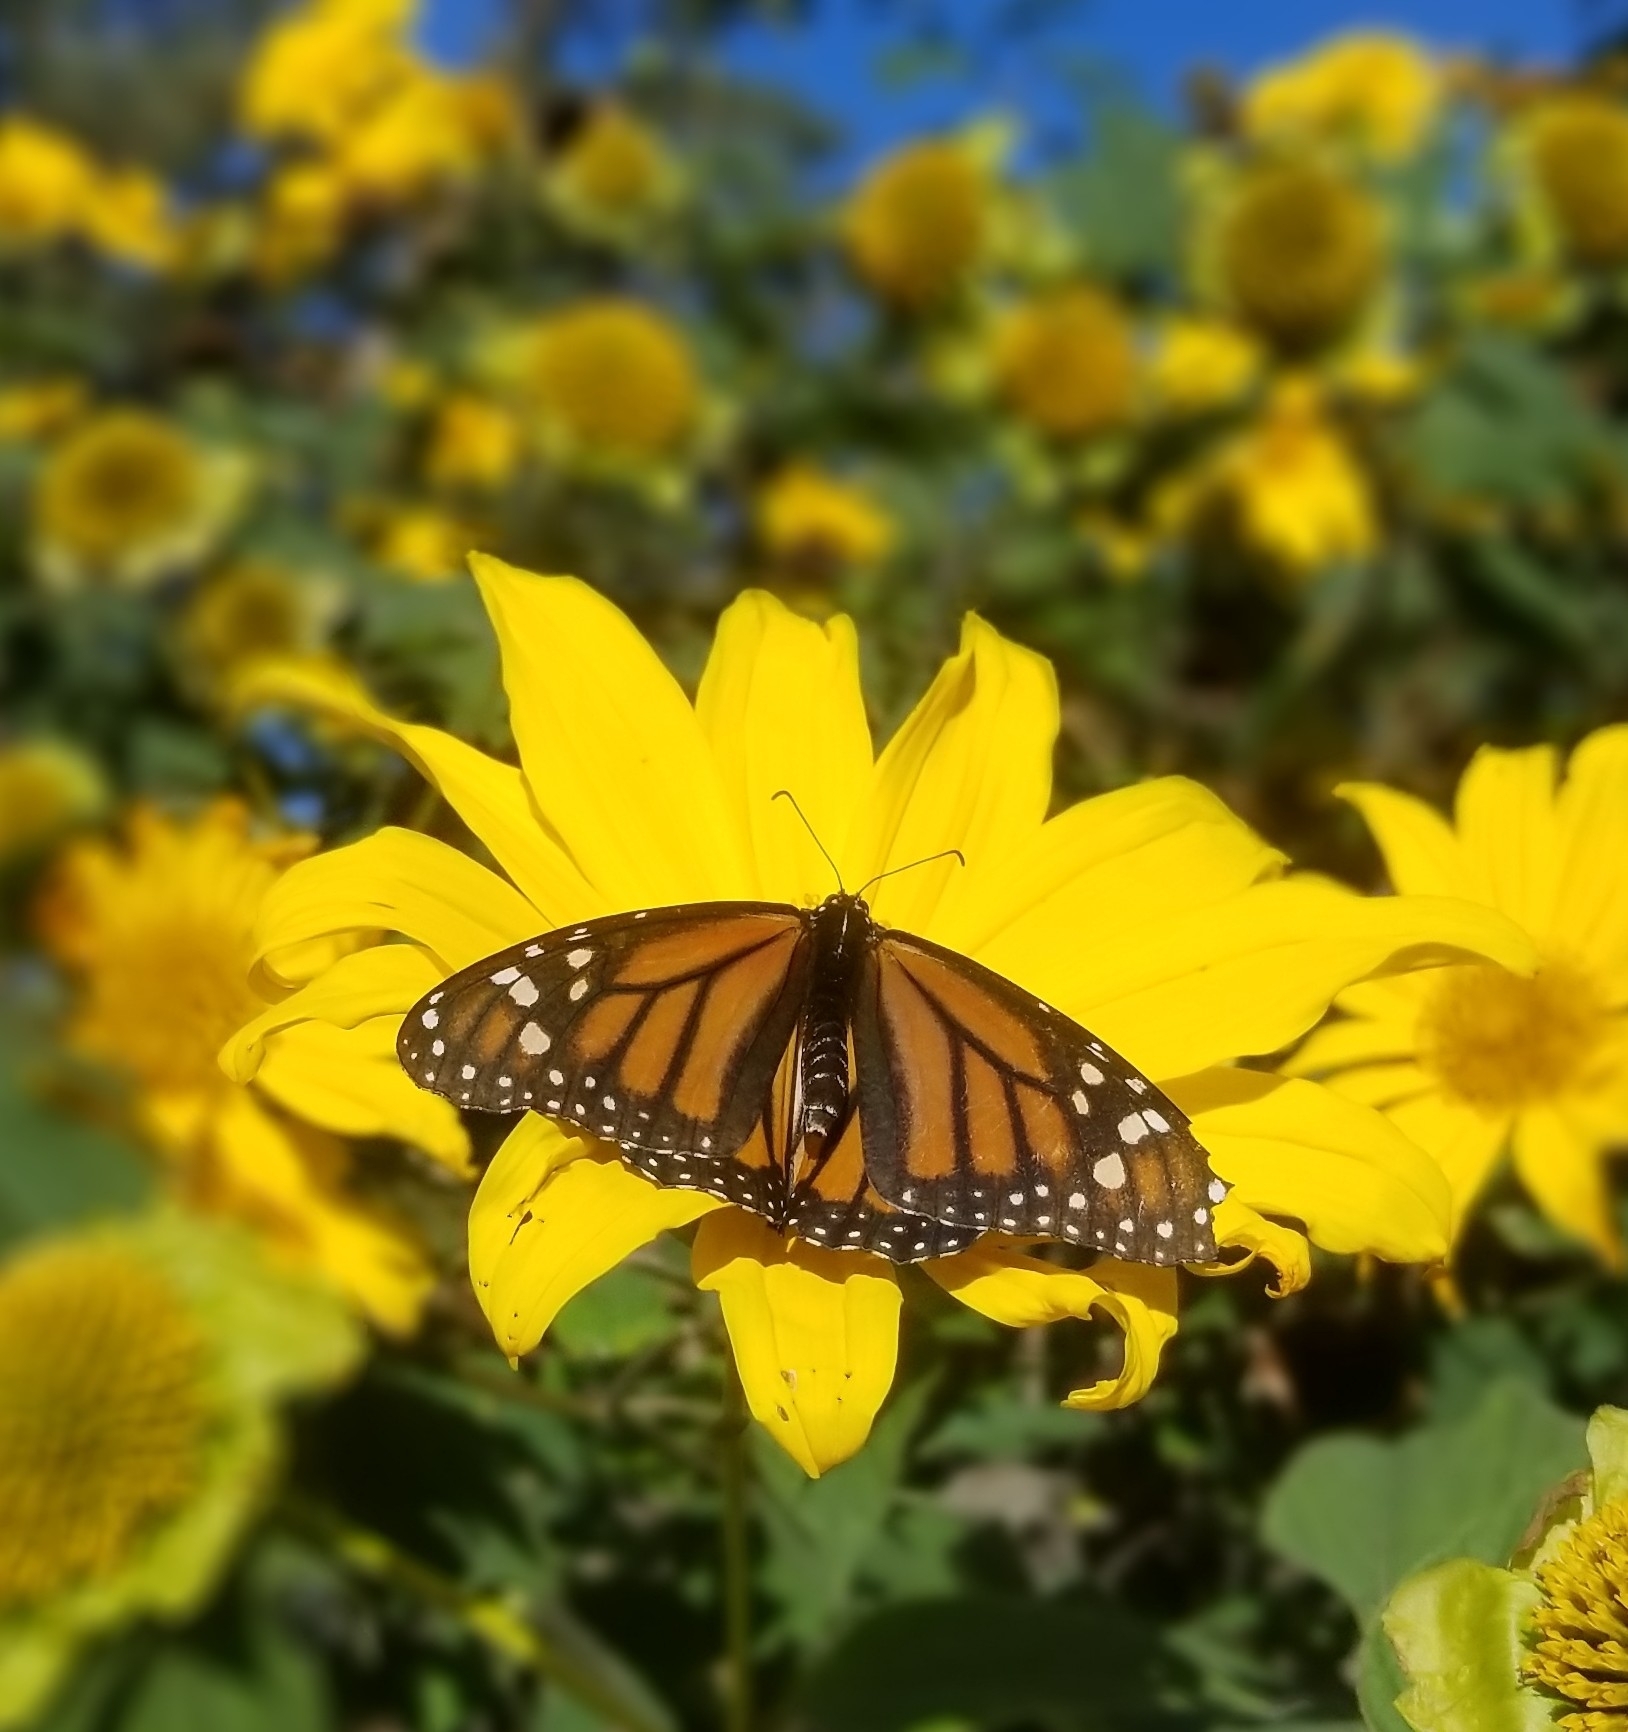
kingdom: Animalia
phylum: Arthropoda
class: Insecta
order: Lepidoptera
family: Nymphalidae
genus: Danaus
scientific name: Danaus plexippus
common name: Monarch
